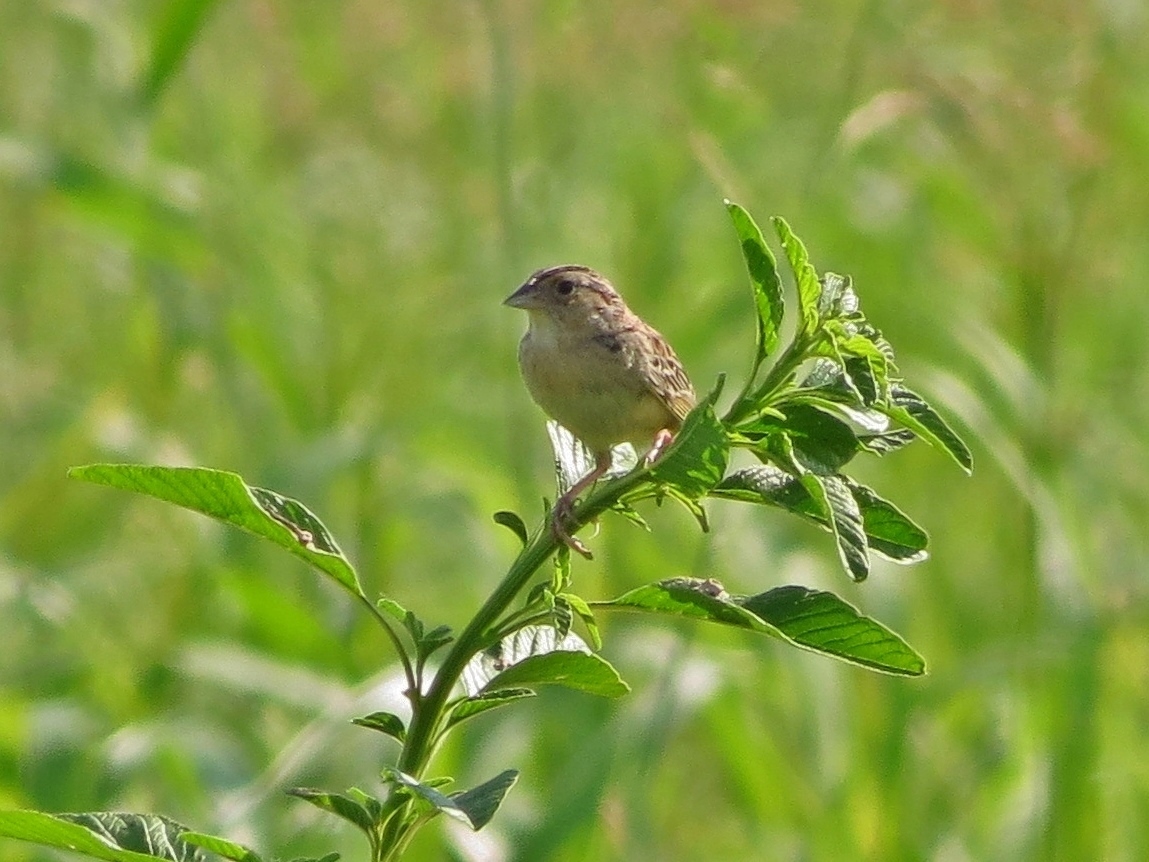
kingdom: Animalia
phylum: Chordata
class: Aves
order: Passeriformes
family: Passerellidae
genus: Ammodramus
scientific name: Ammodramus savannarum
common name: Grasshopper sparrow
